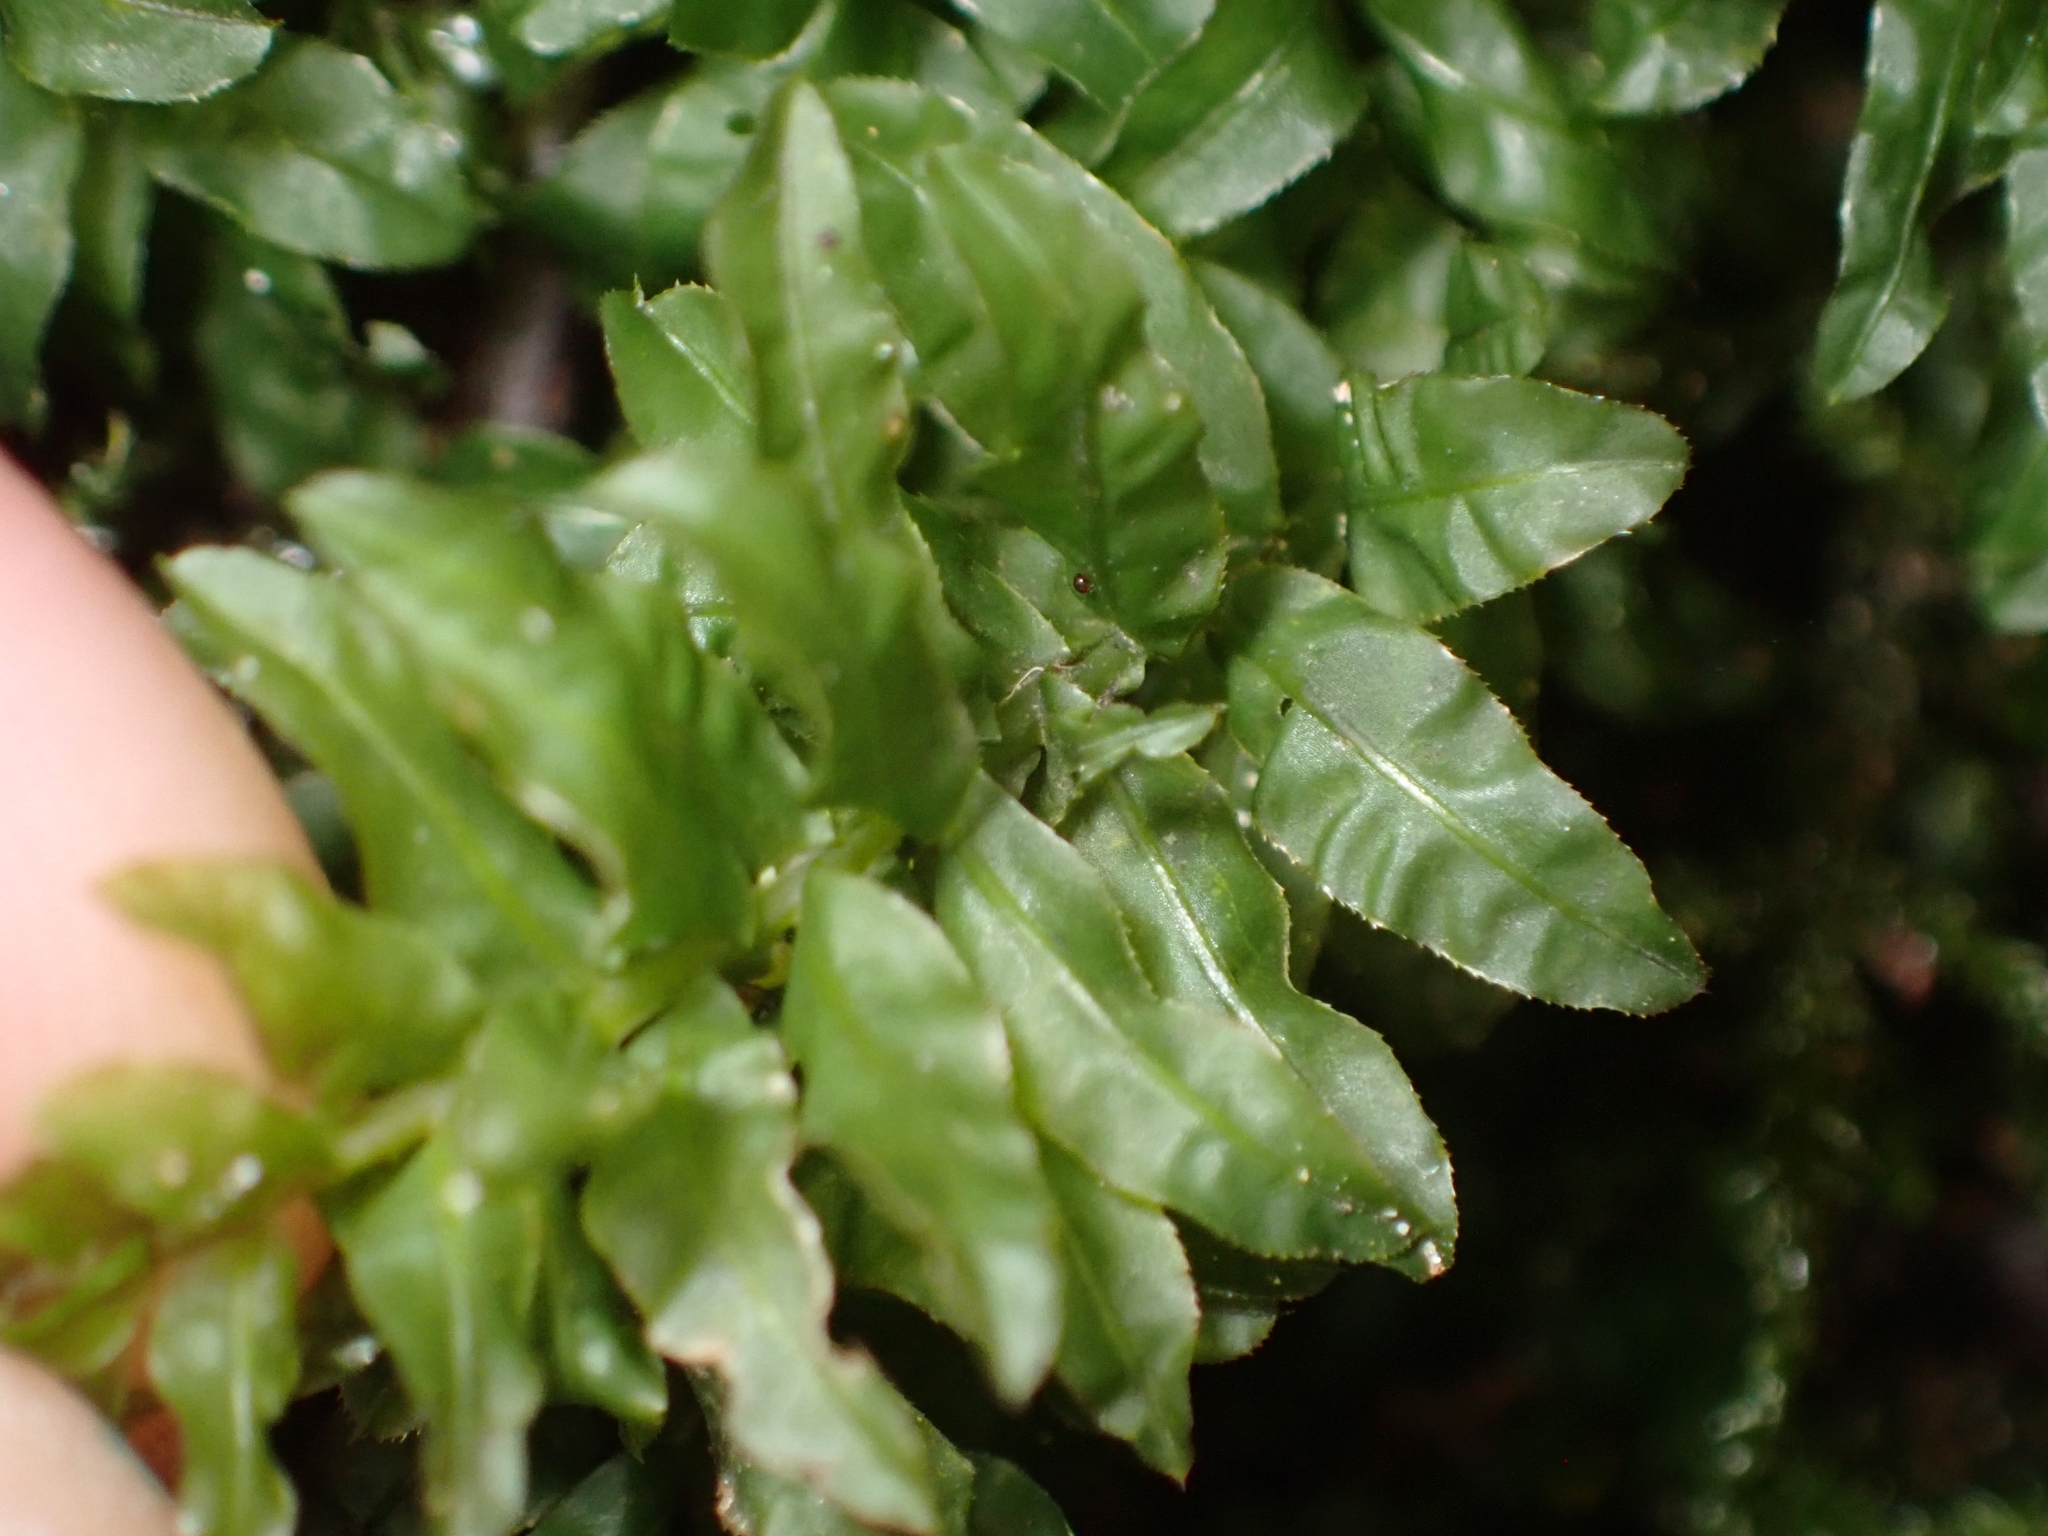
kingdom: Plantae
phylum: Bryophyta
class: Bryopsida
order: Bryales
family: Mniaceae
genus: Plagiomnium
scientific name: Plagiomnium undulatum
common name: Hart's-tongue thyme-moss
